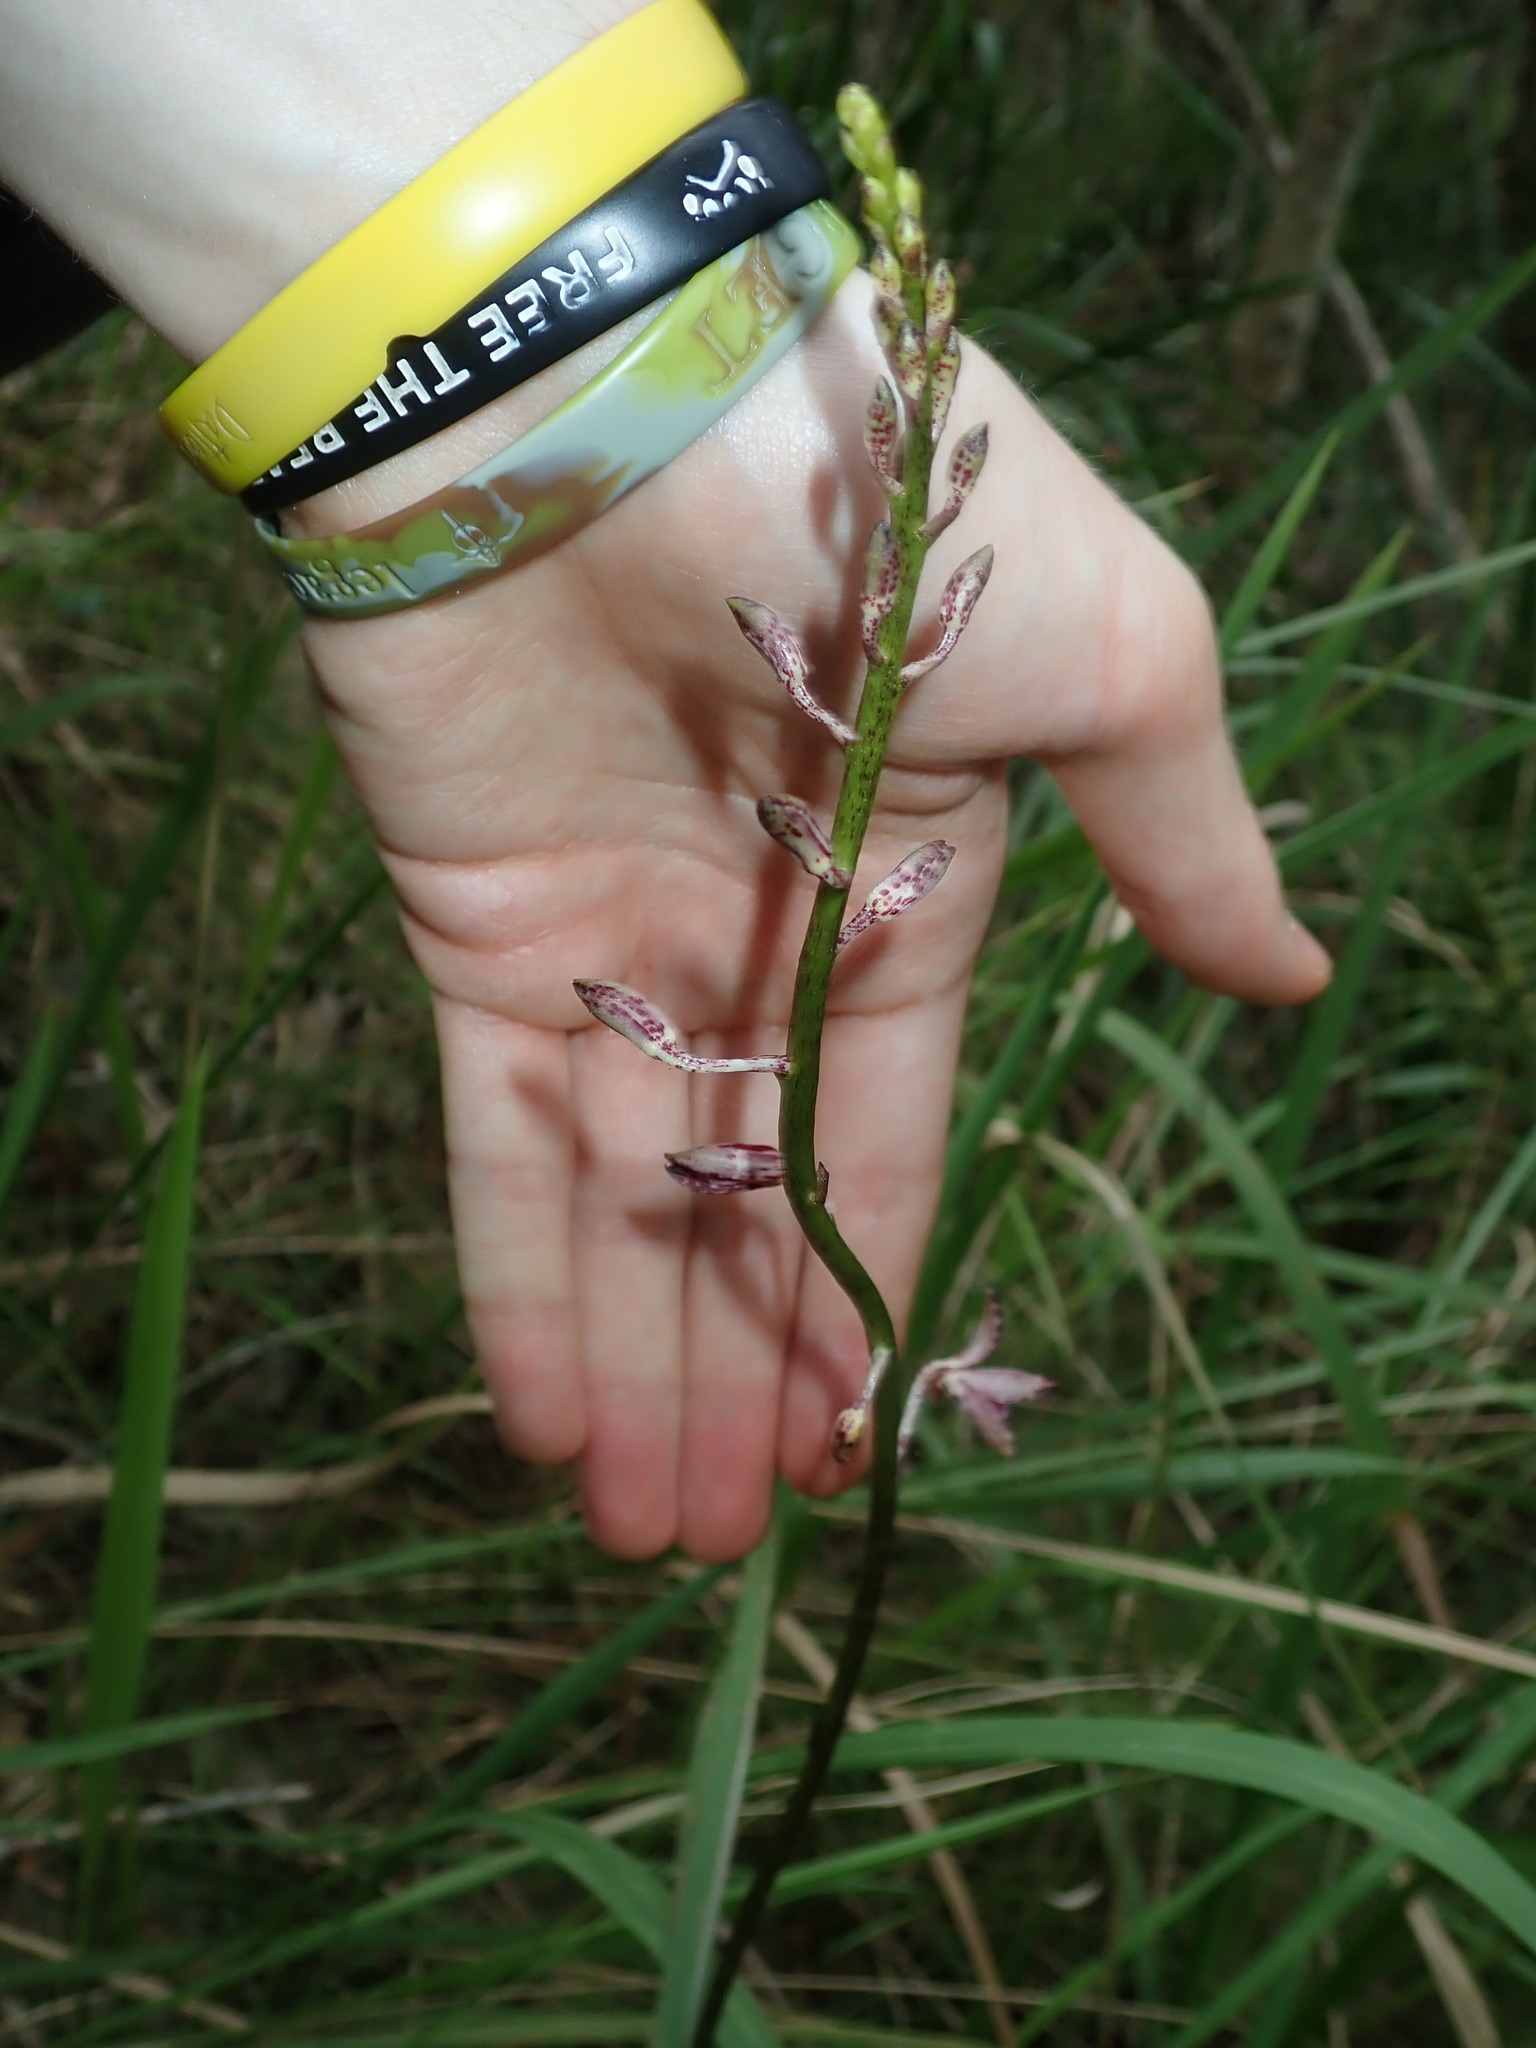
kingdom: Plantae
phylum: Tracheophyta
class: Liliopsida
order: Asparagales
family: Orchidaceae
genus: Dipodium
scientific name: Dipodium variegatum
